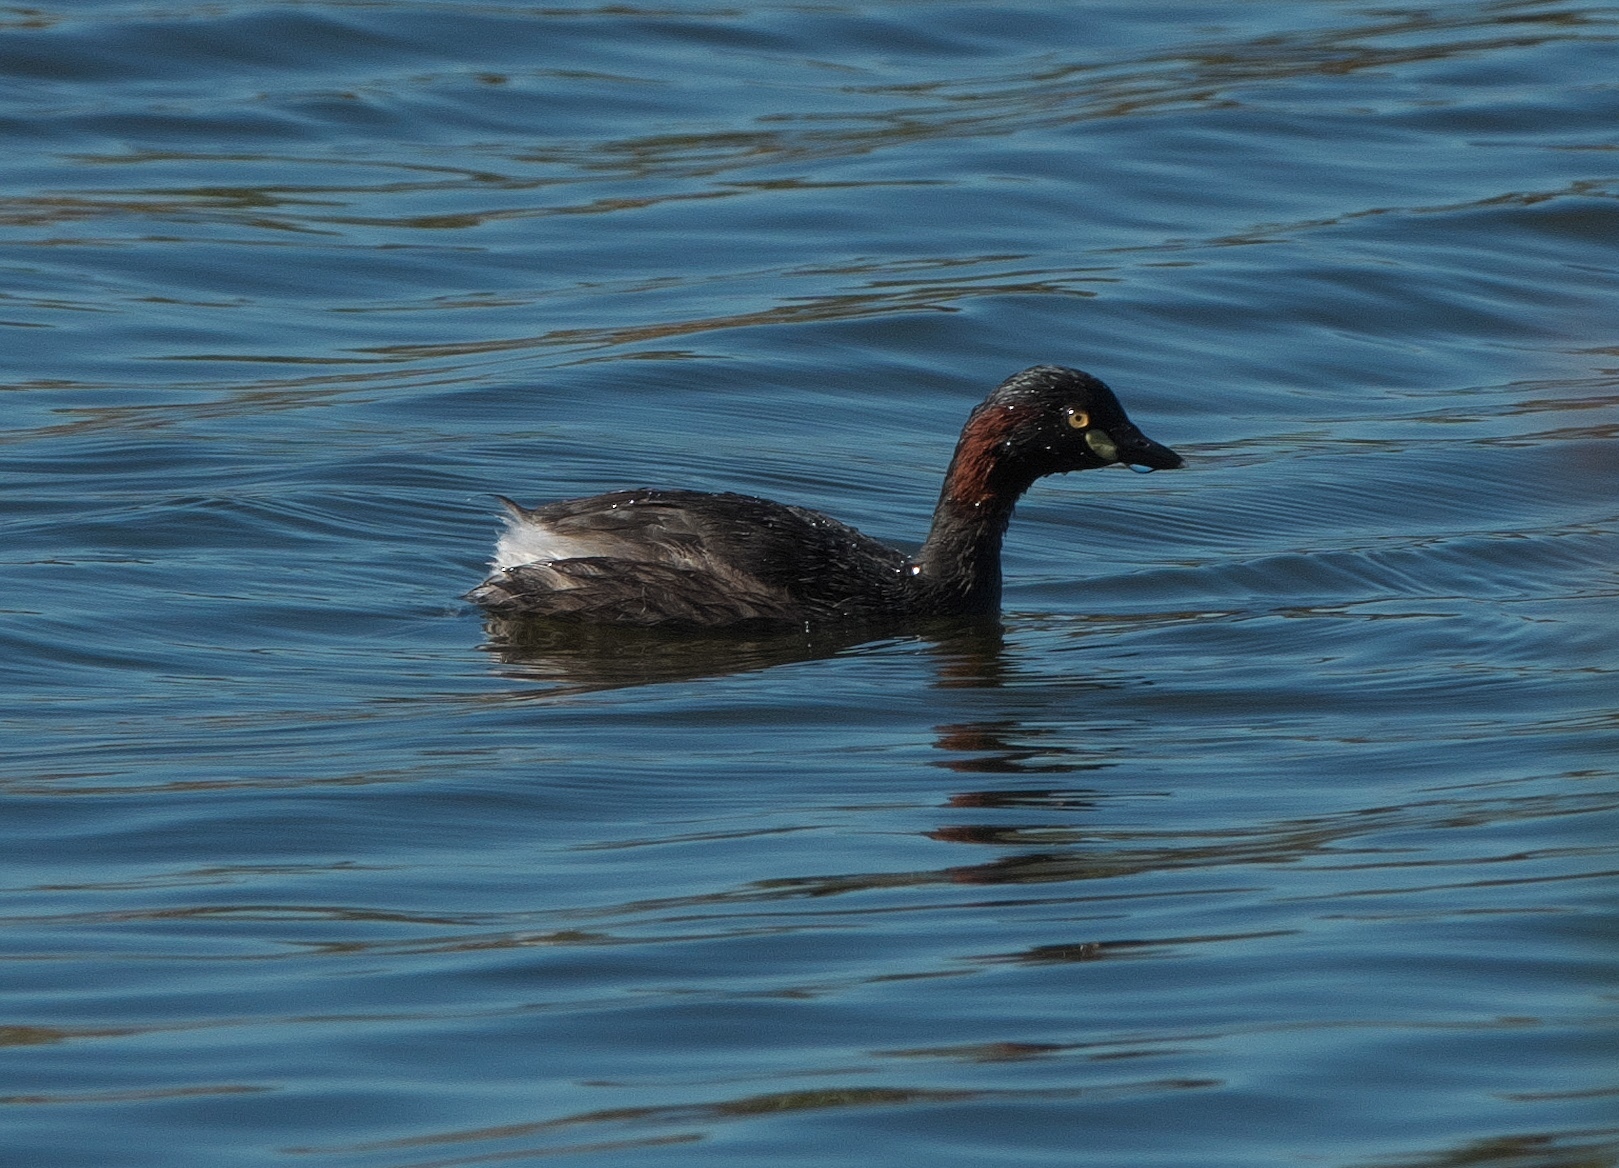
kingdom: Animalia
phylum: Chordata
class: Aves
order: Podicipediformes
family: Podicipedidae
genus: Tachybaptus
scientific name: Tachybaptus novaehollandiae
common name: Australasian grebe
